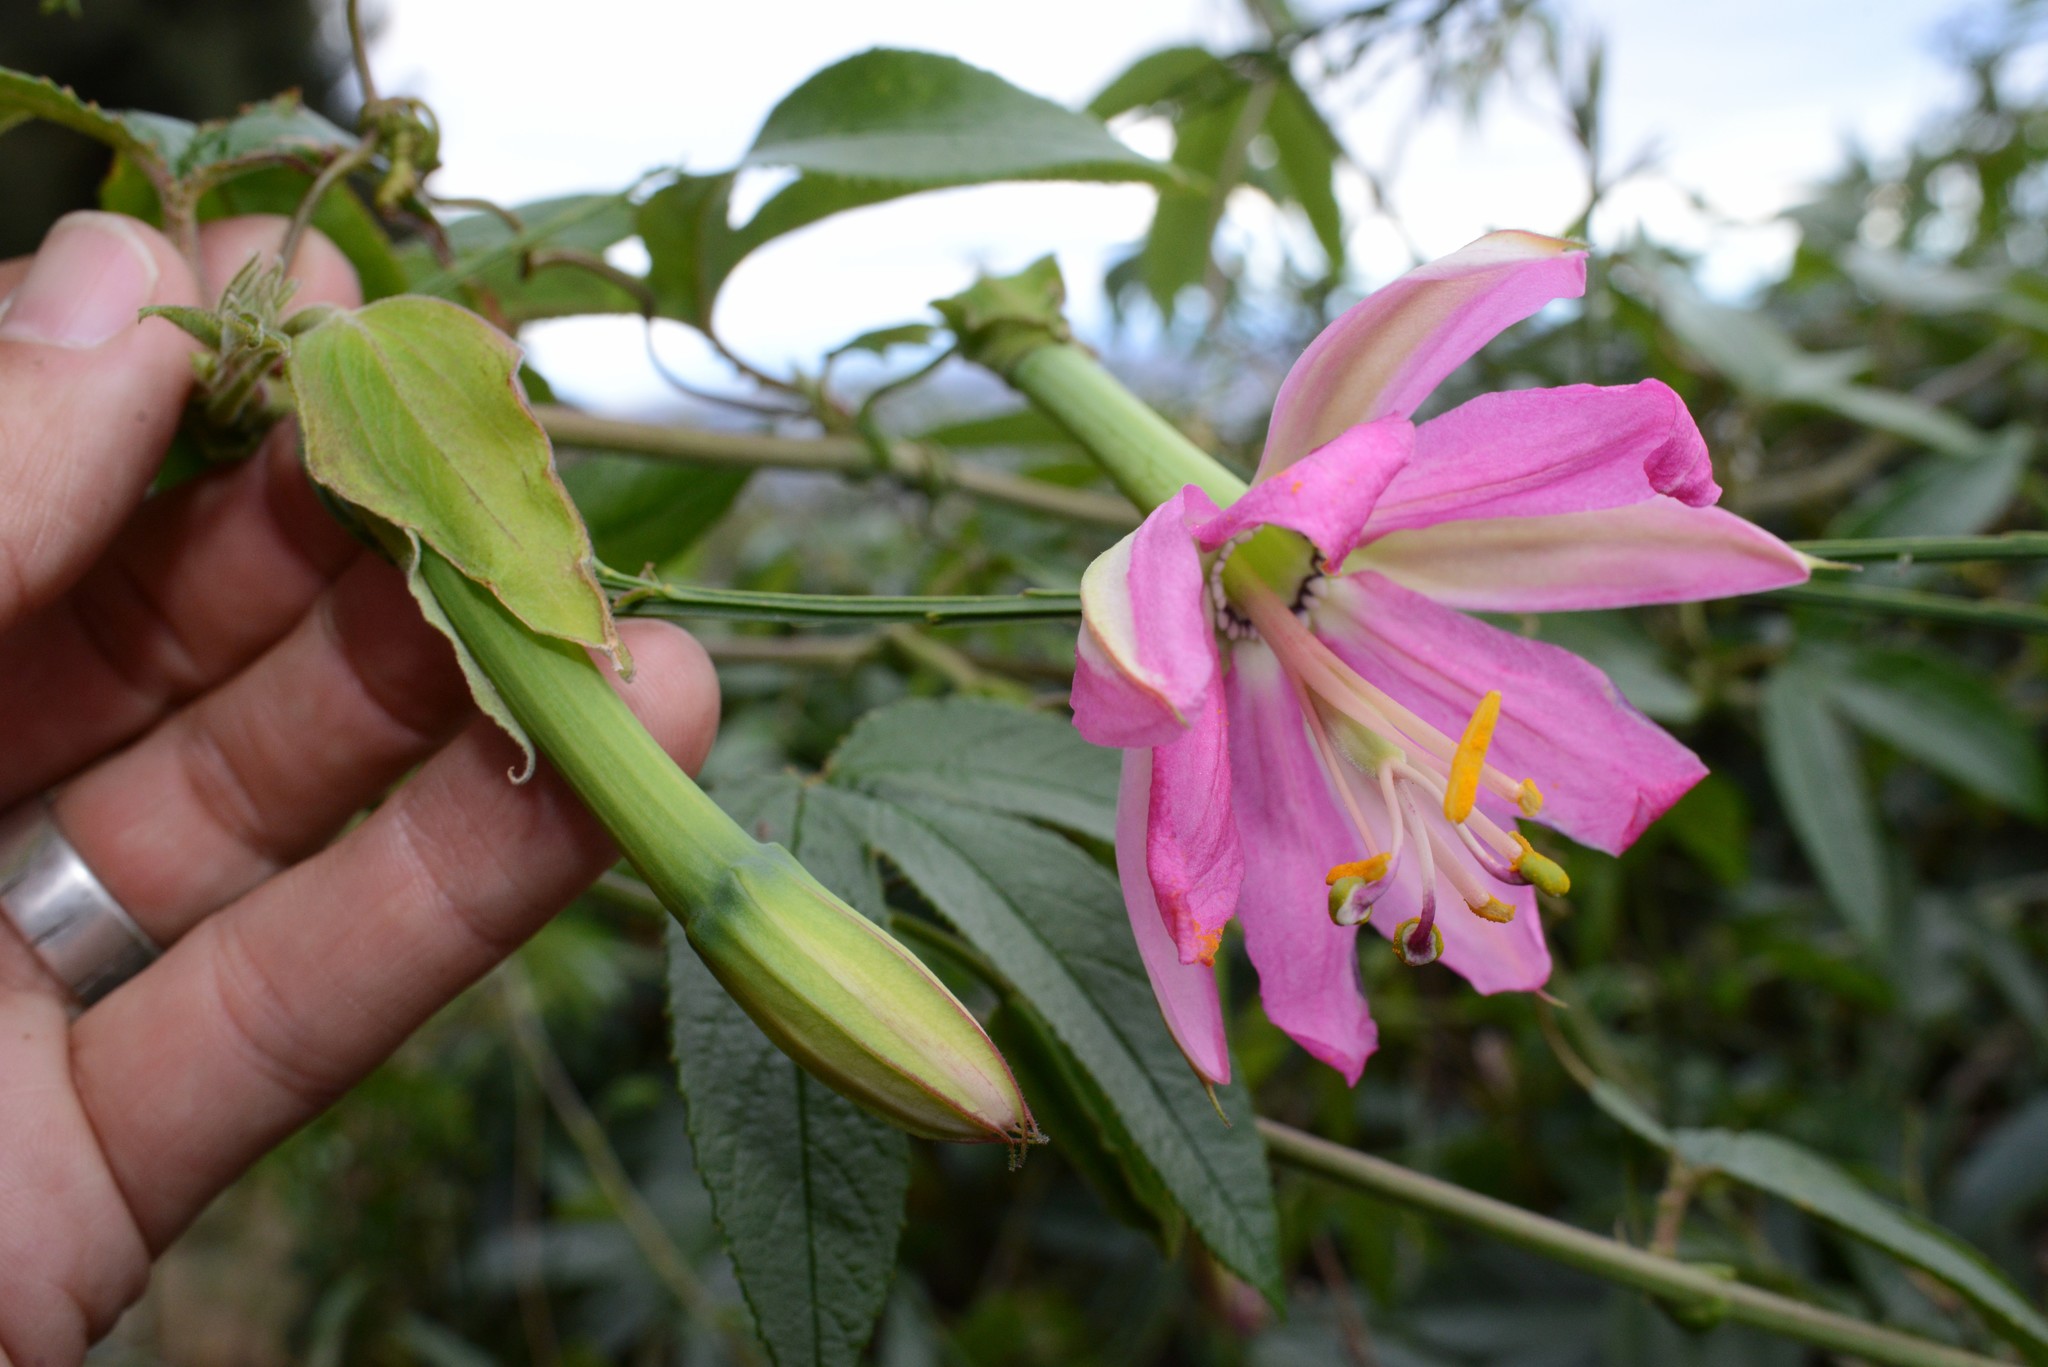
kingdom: Plantae
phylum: Tracheophyta
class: Magnoliopsida
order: Malpighiales
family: Passifloraceae
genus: Passiflora
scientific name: Passiflora tripartita
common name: Banana poka
